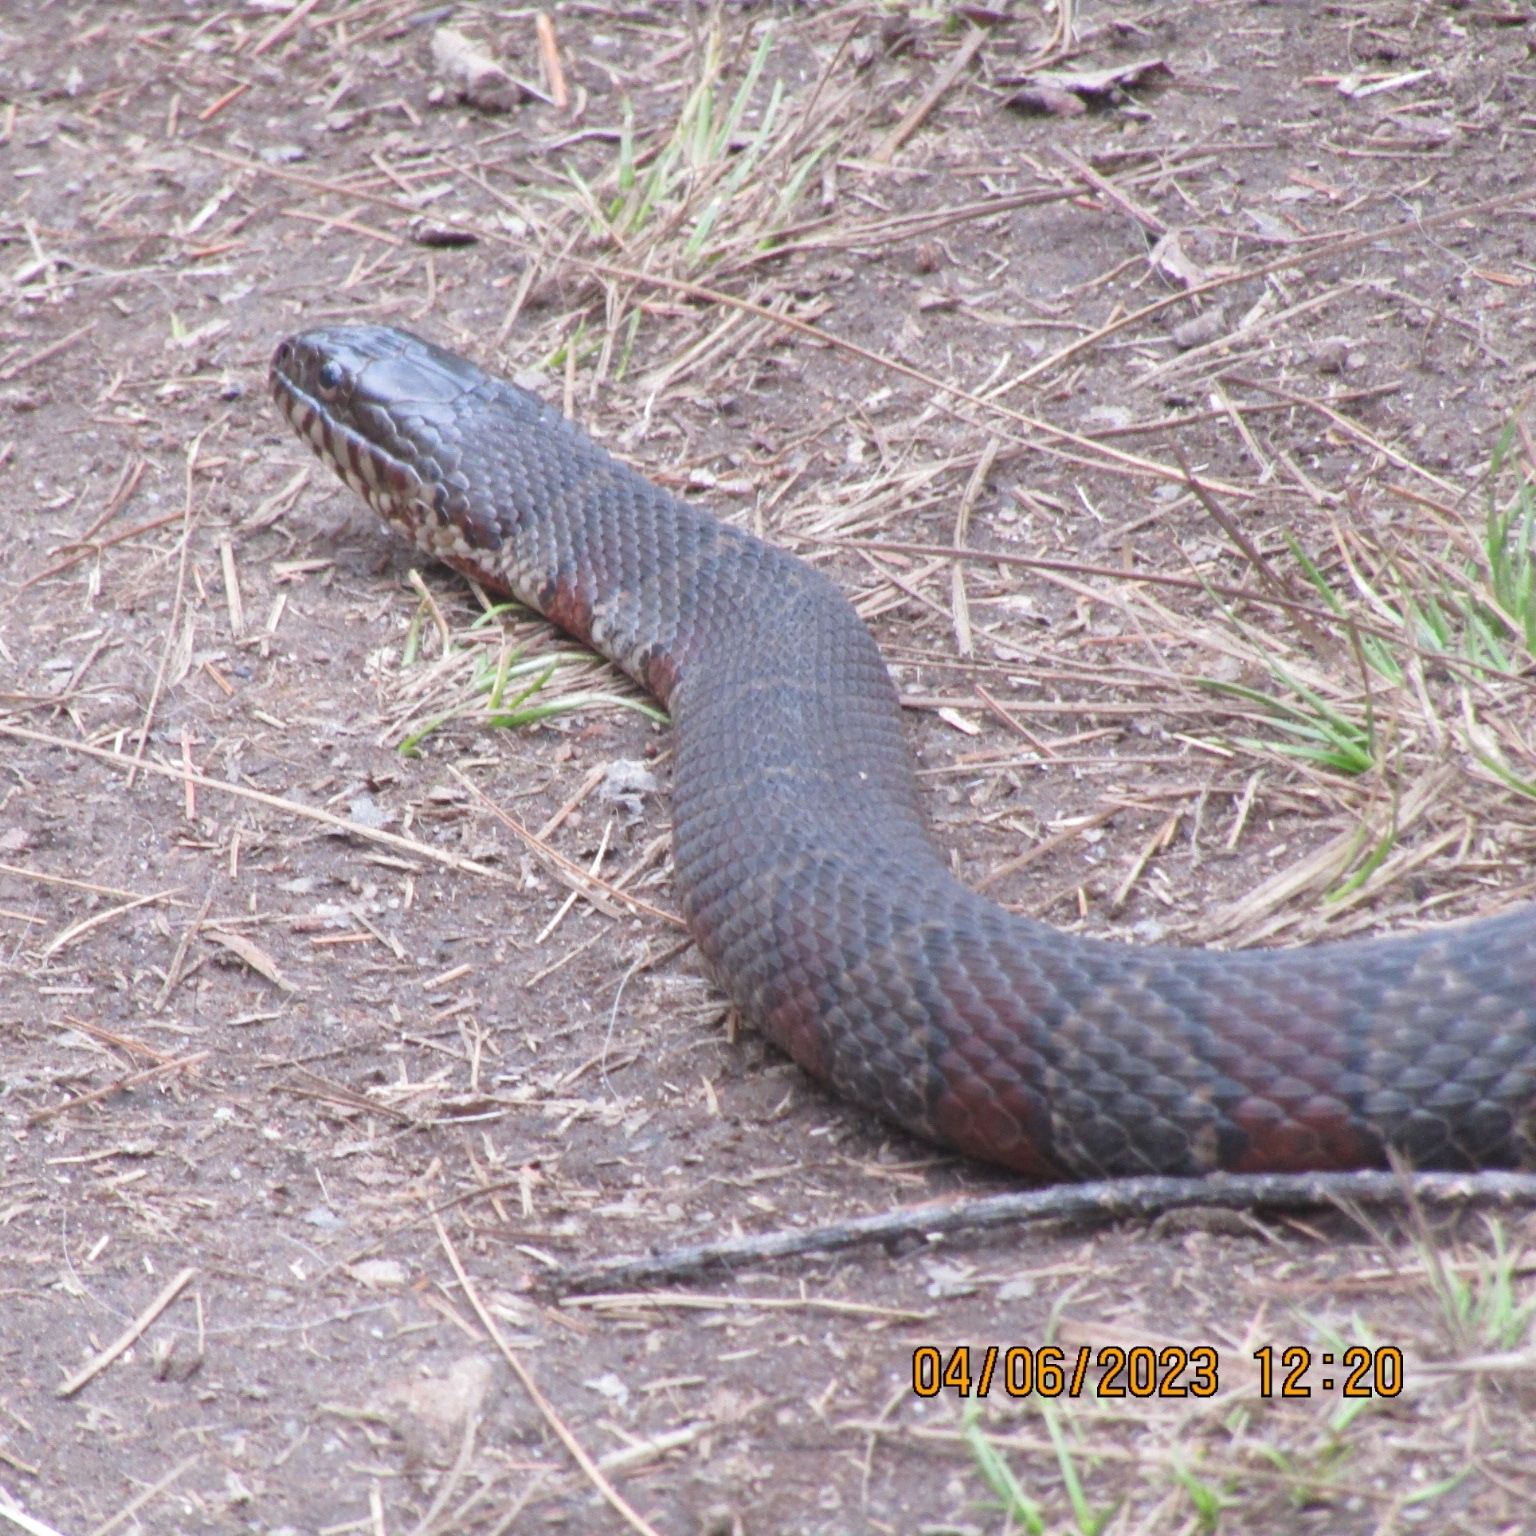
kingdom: Animalia
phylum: Chordata
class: Squamata
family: Colubridae
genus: Nerodia
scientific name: Nerodia sipedon
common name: Northern water snake
